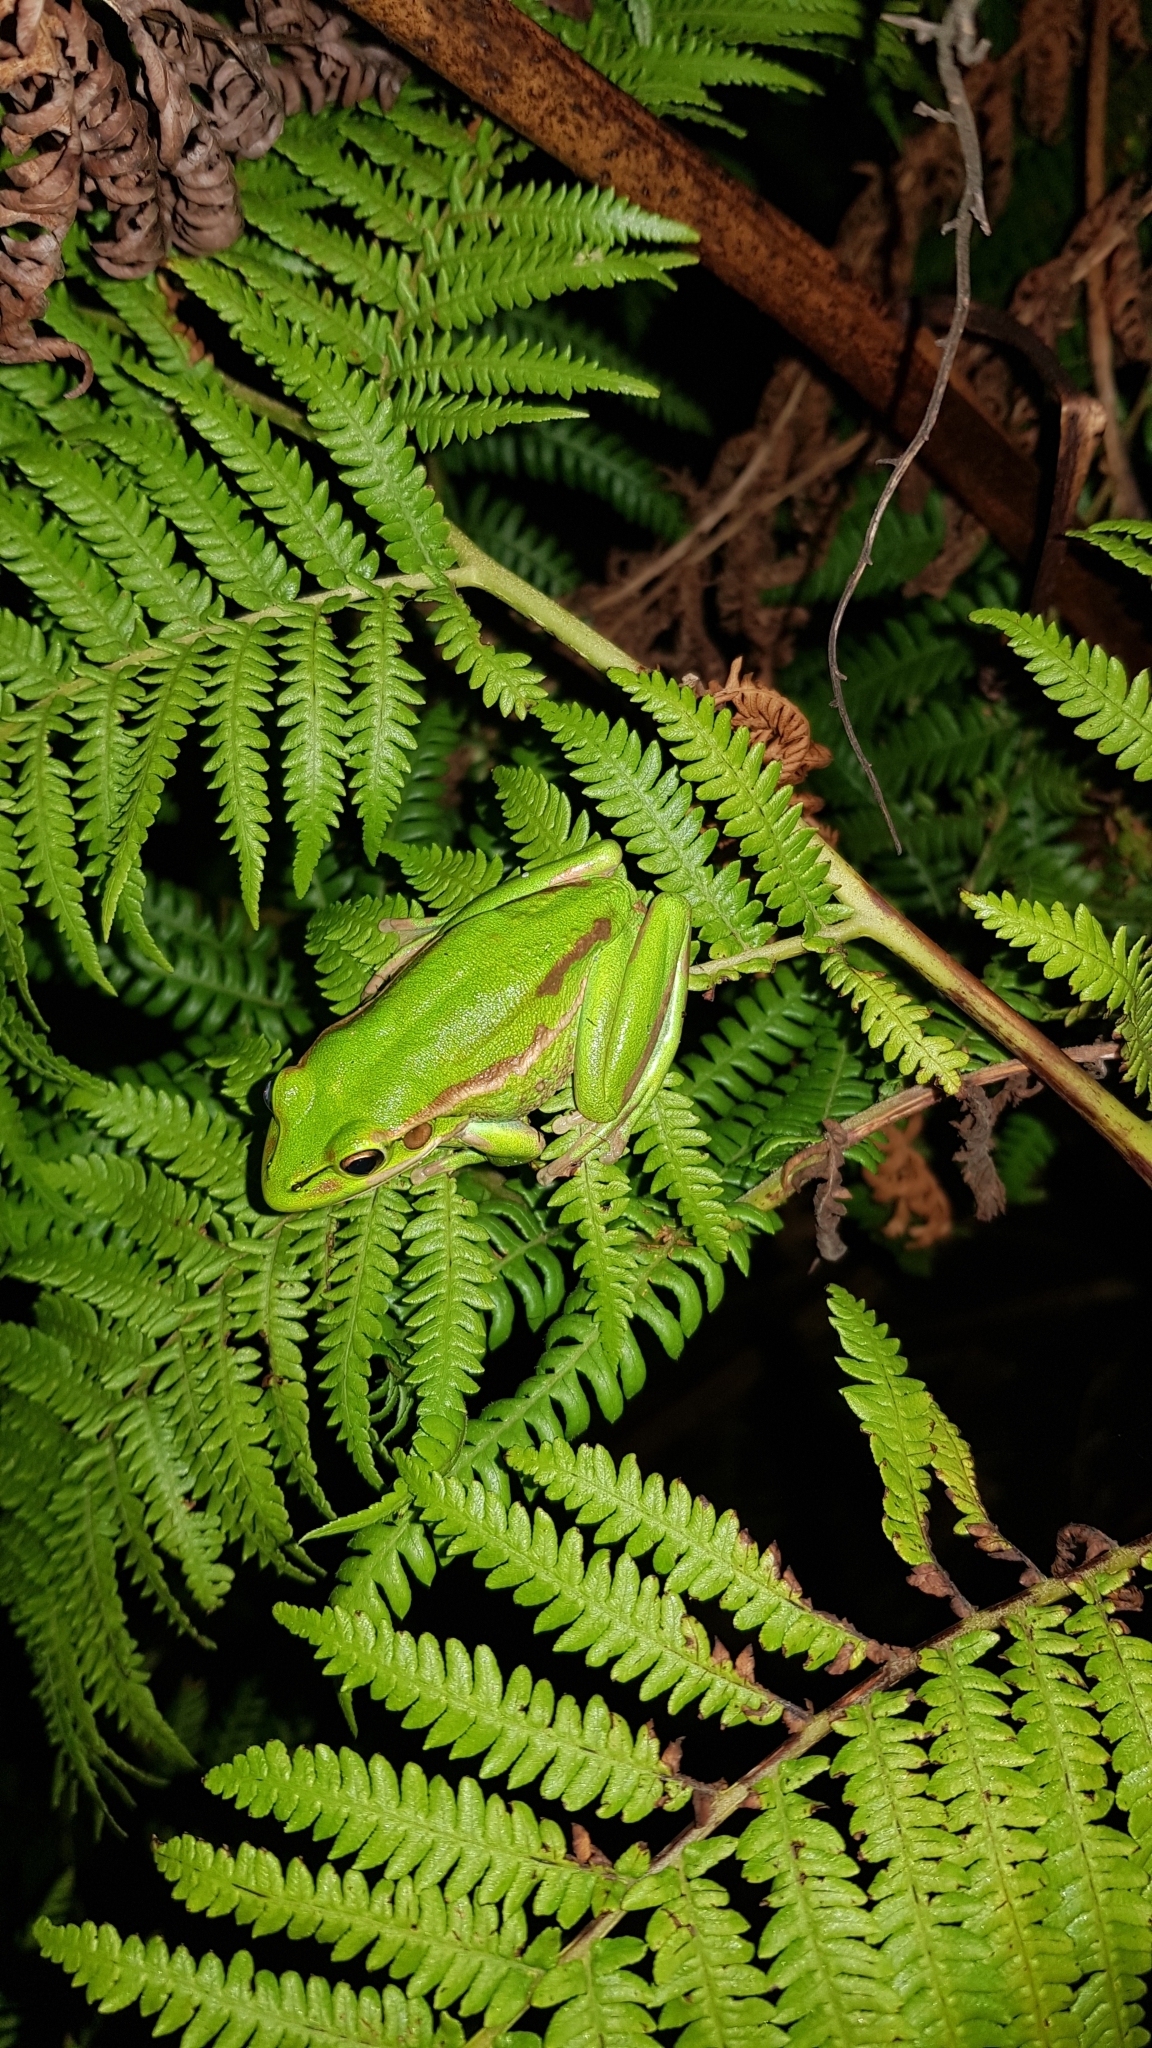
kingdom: Animalia
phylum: Chordata
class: Amphibia
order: Anura
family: Pelodryadidae
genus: Ranoidea
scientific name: Ranoidea aurea
